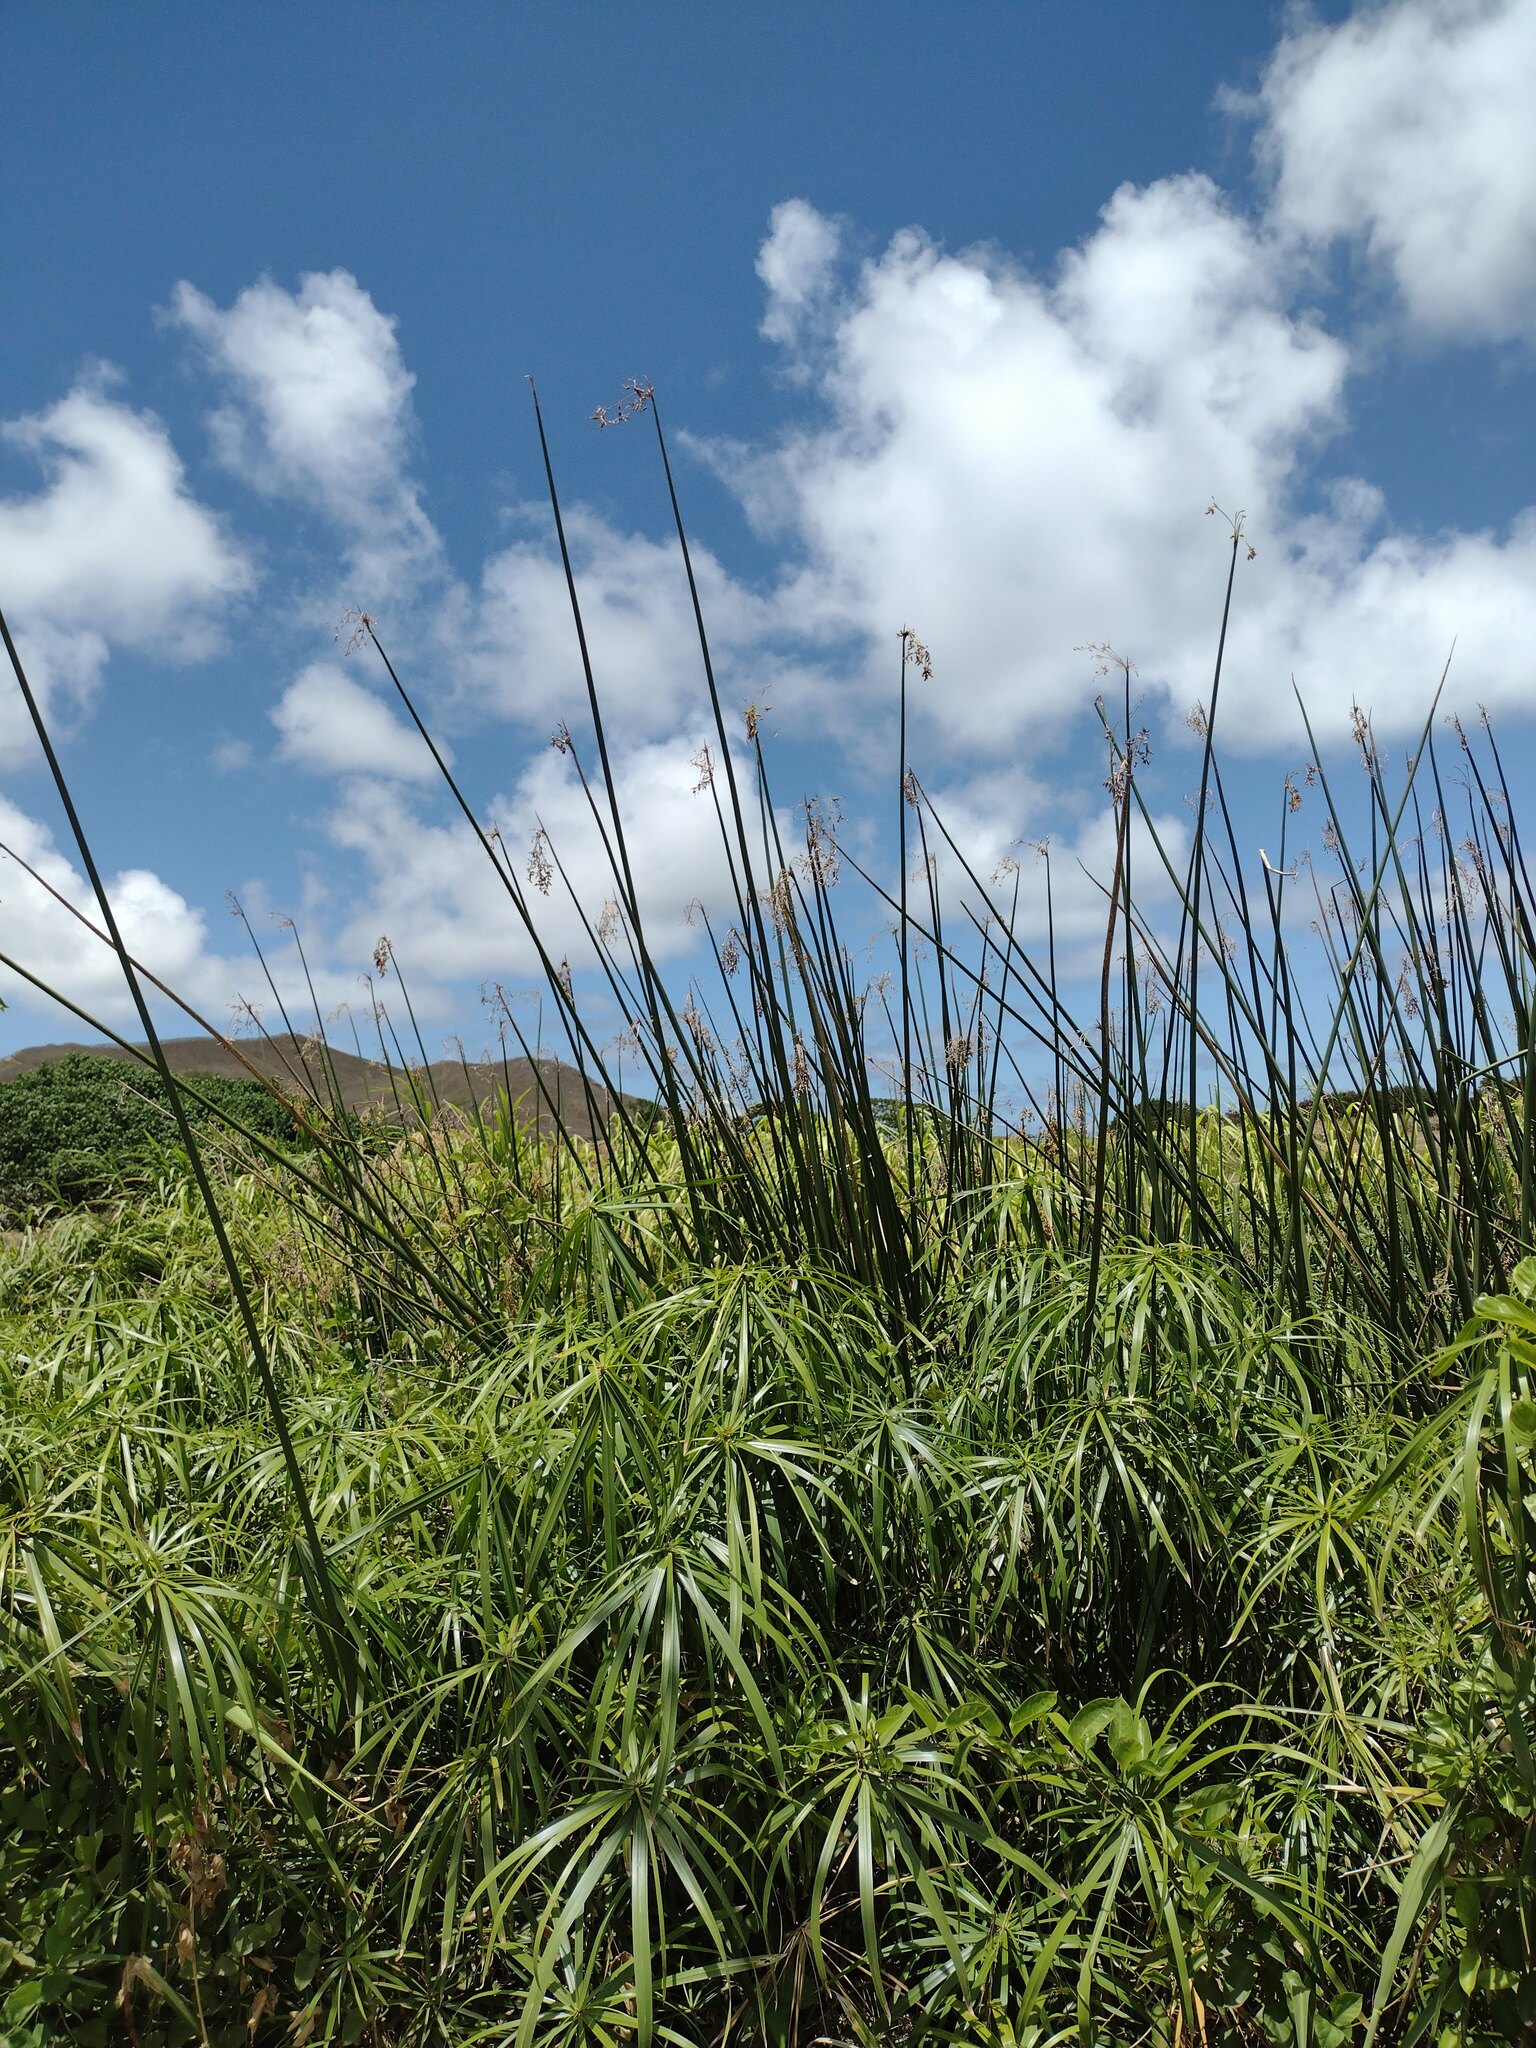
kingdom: Plantae
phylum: Tracheophyta
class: Liliopsida
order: Poales
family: Cyperaceae
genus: Schoenoplectus
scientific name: Schoenoplectus californicus
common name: California bulrush
